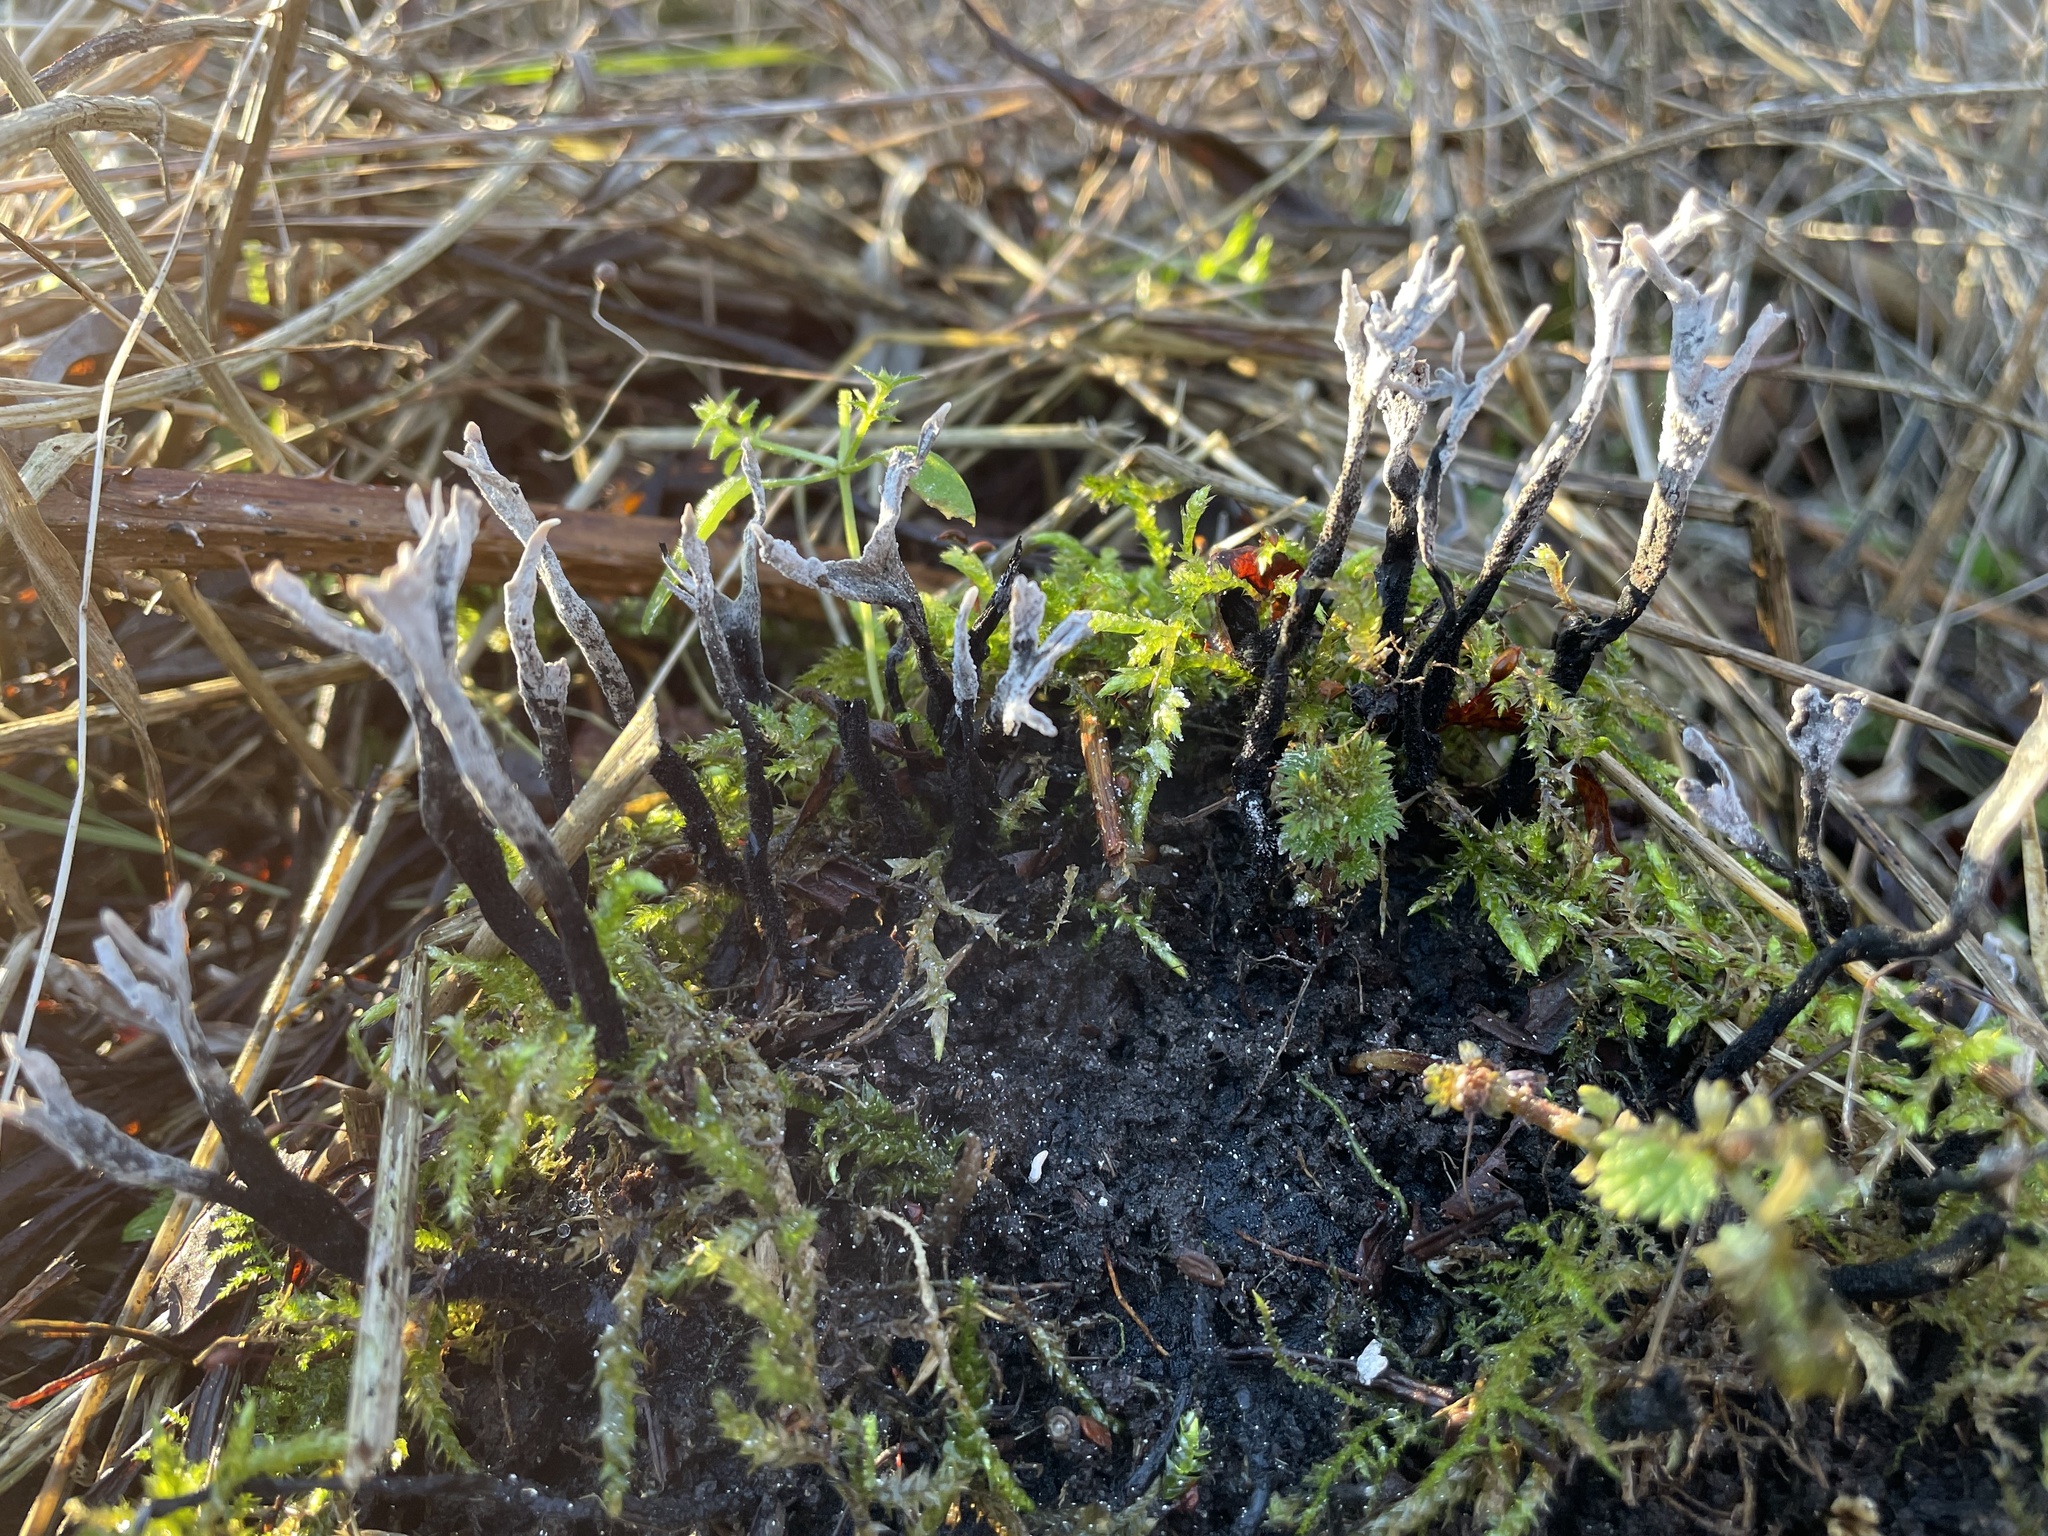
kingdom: Fungi
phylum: Ascomycota
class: Sordariomycetes
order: Xylariales
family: Xylariaceae
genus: Xylaria
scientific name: Xylaria hypoxylon
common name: Candle-snuff fungus
